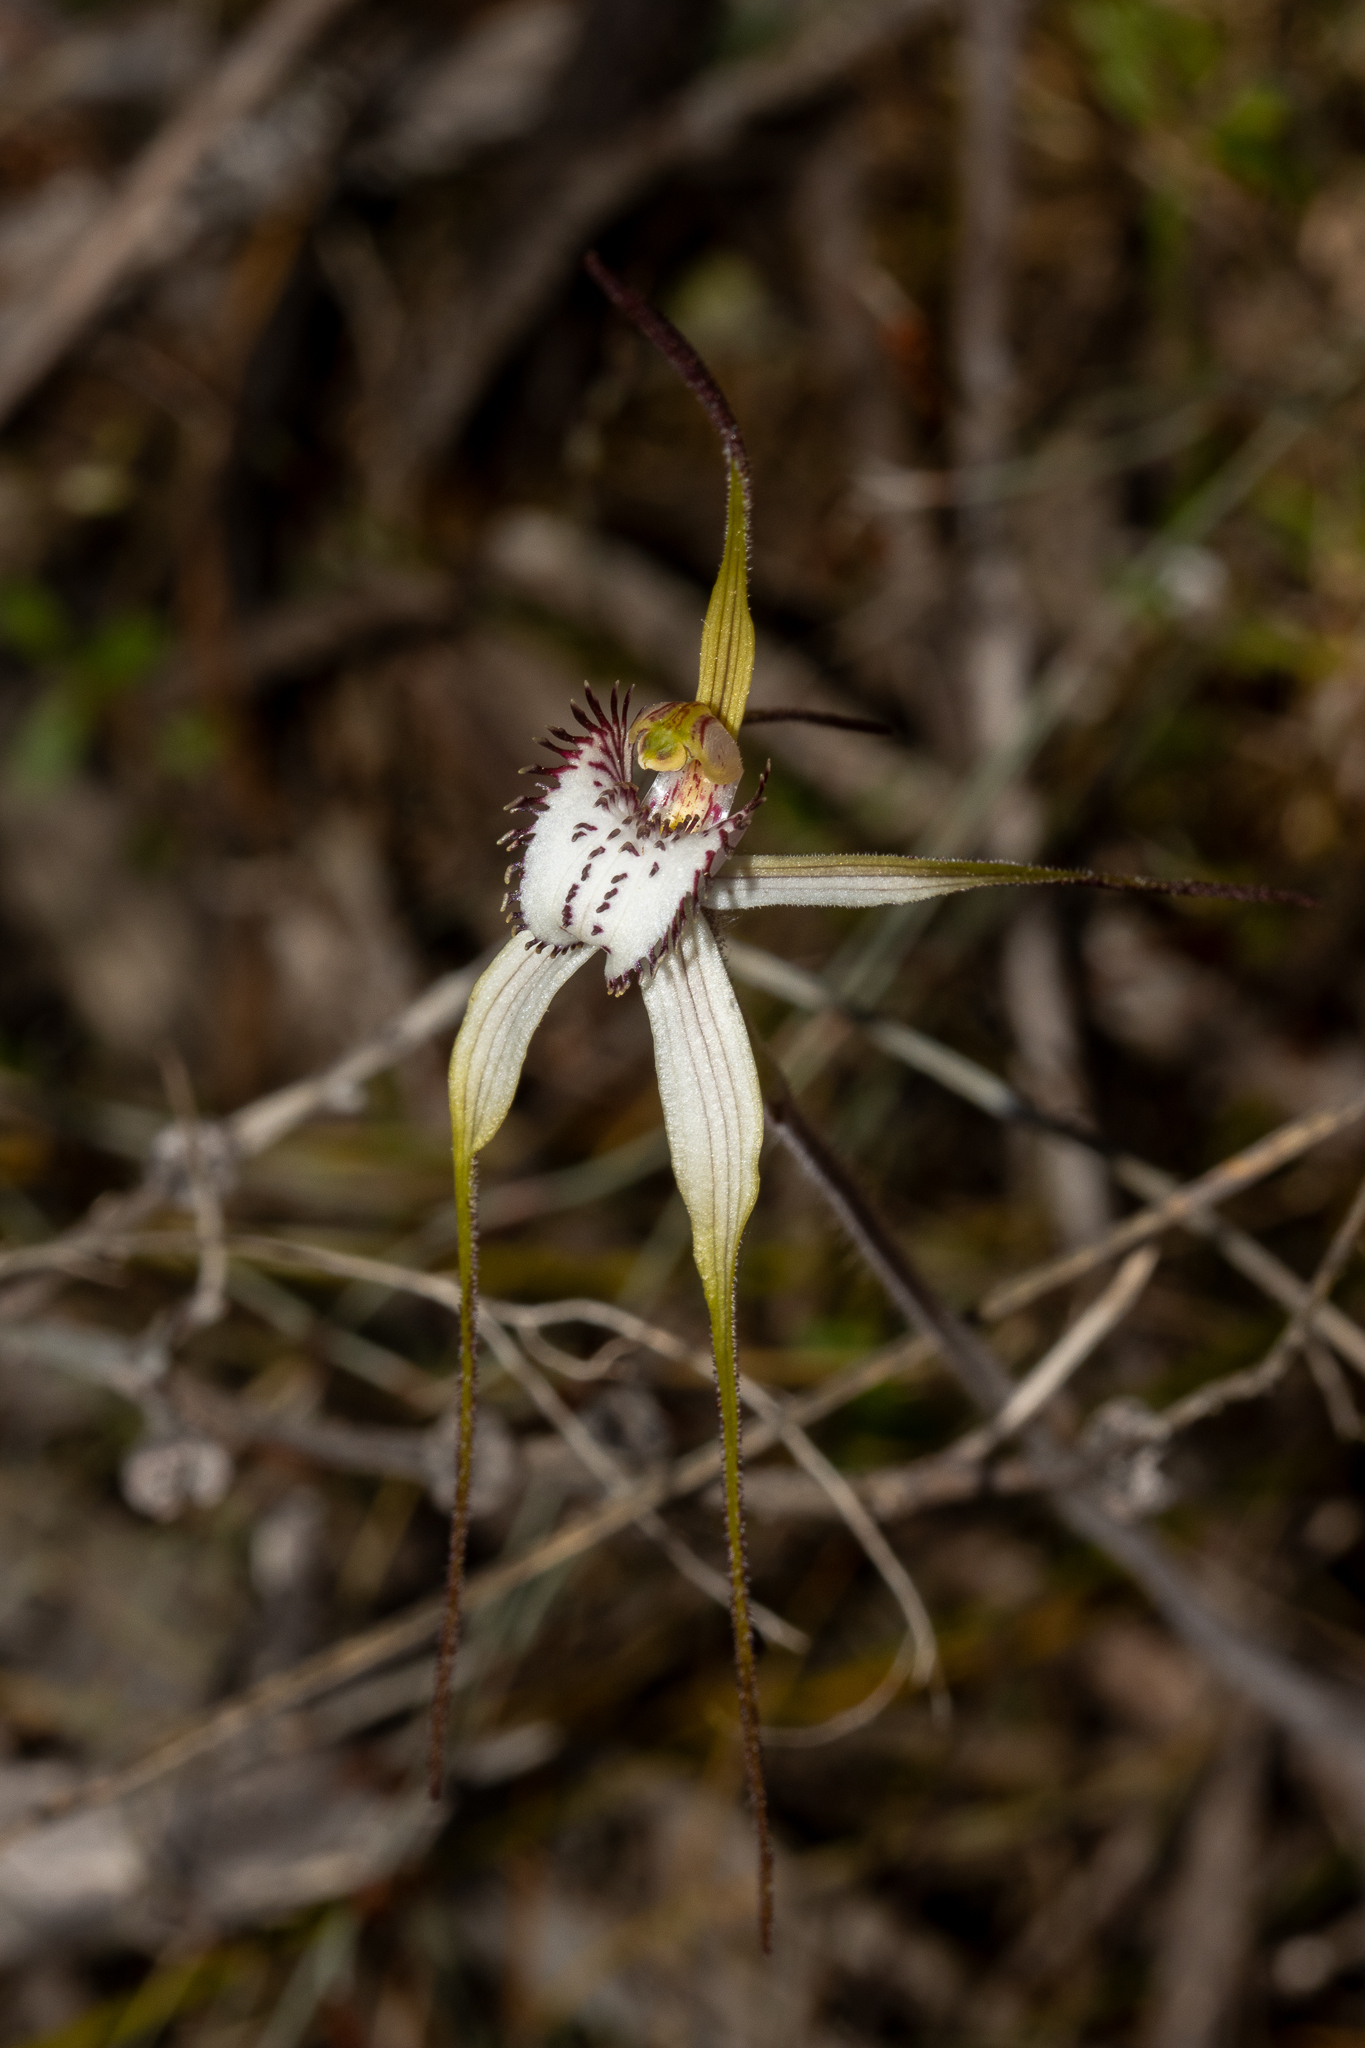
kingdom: Plantae
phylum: Tracheophyta
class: Liliopsida
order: Asparagales
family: Orchidaceae
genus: Caladenia
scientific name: Caladenia venusta
